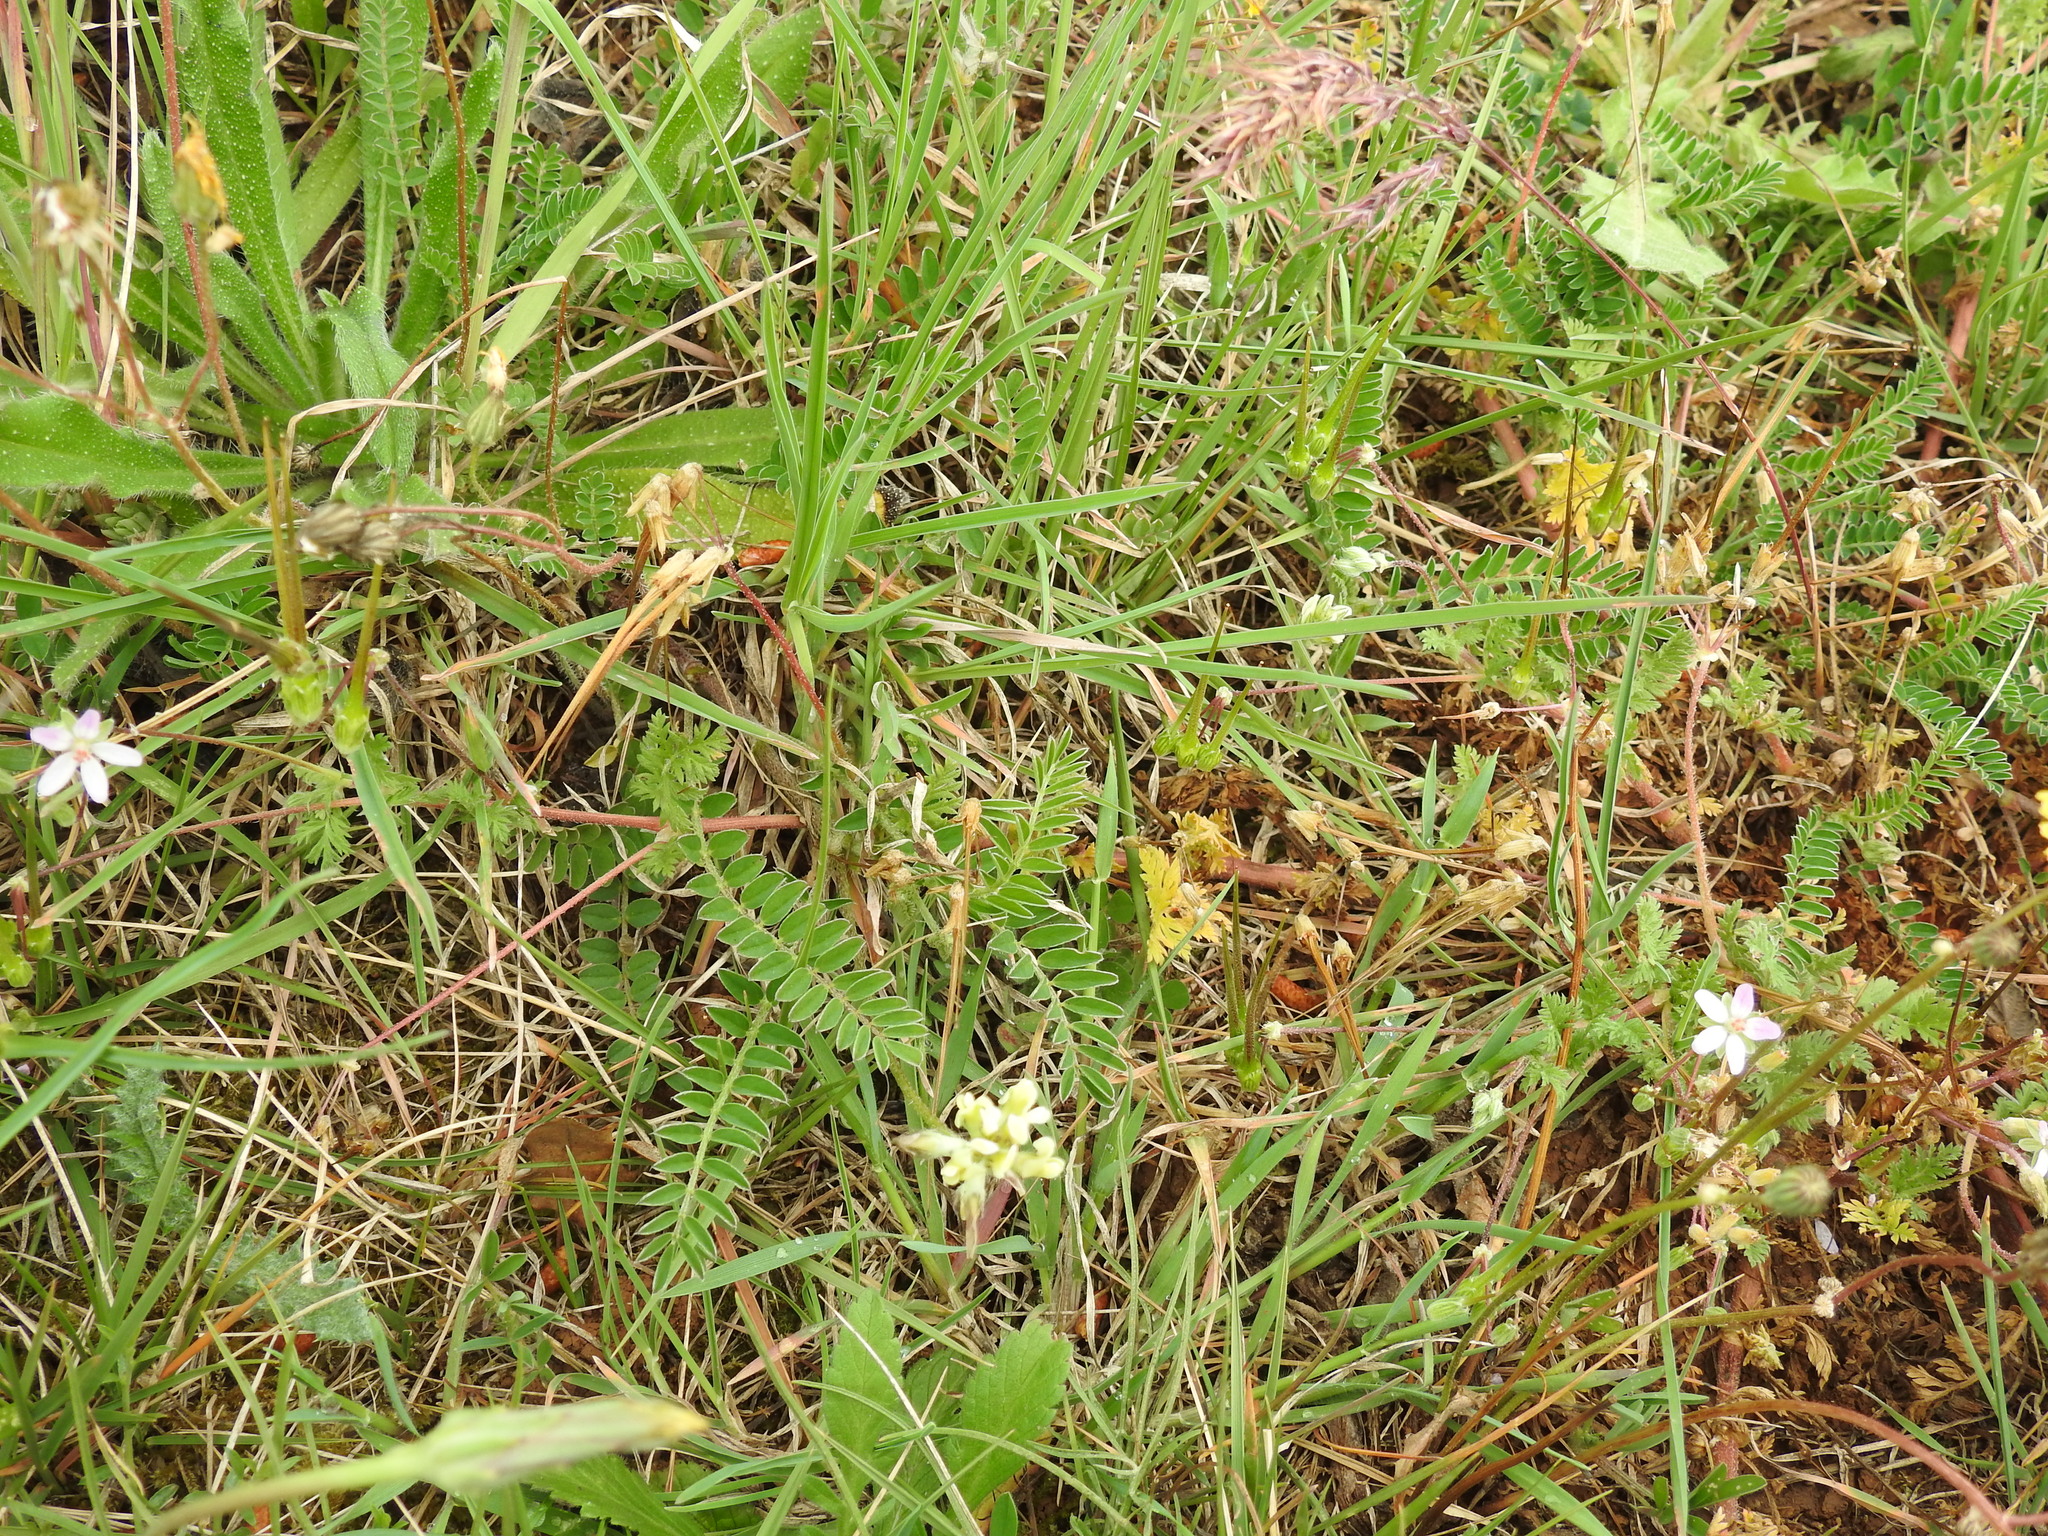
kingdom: Plantae
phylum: Tracheophyta
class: Magnoliopsida
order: Fabales
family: Fabaceae
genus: Astragalus
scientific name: Astragalus hamosus
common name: European milkvetch
